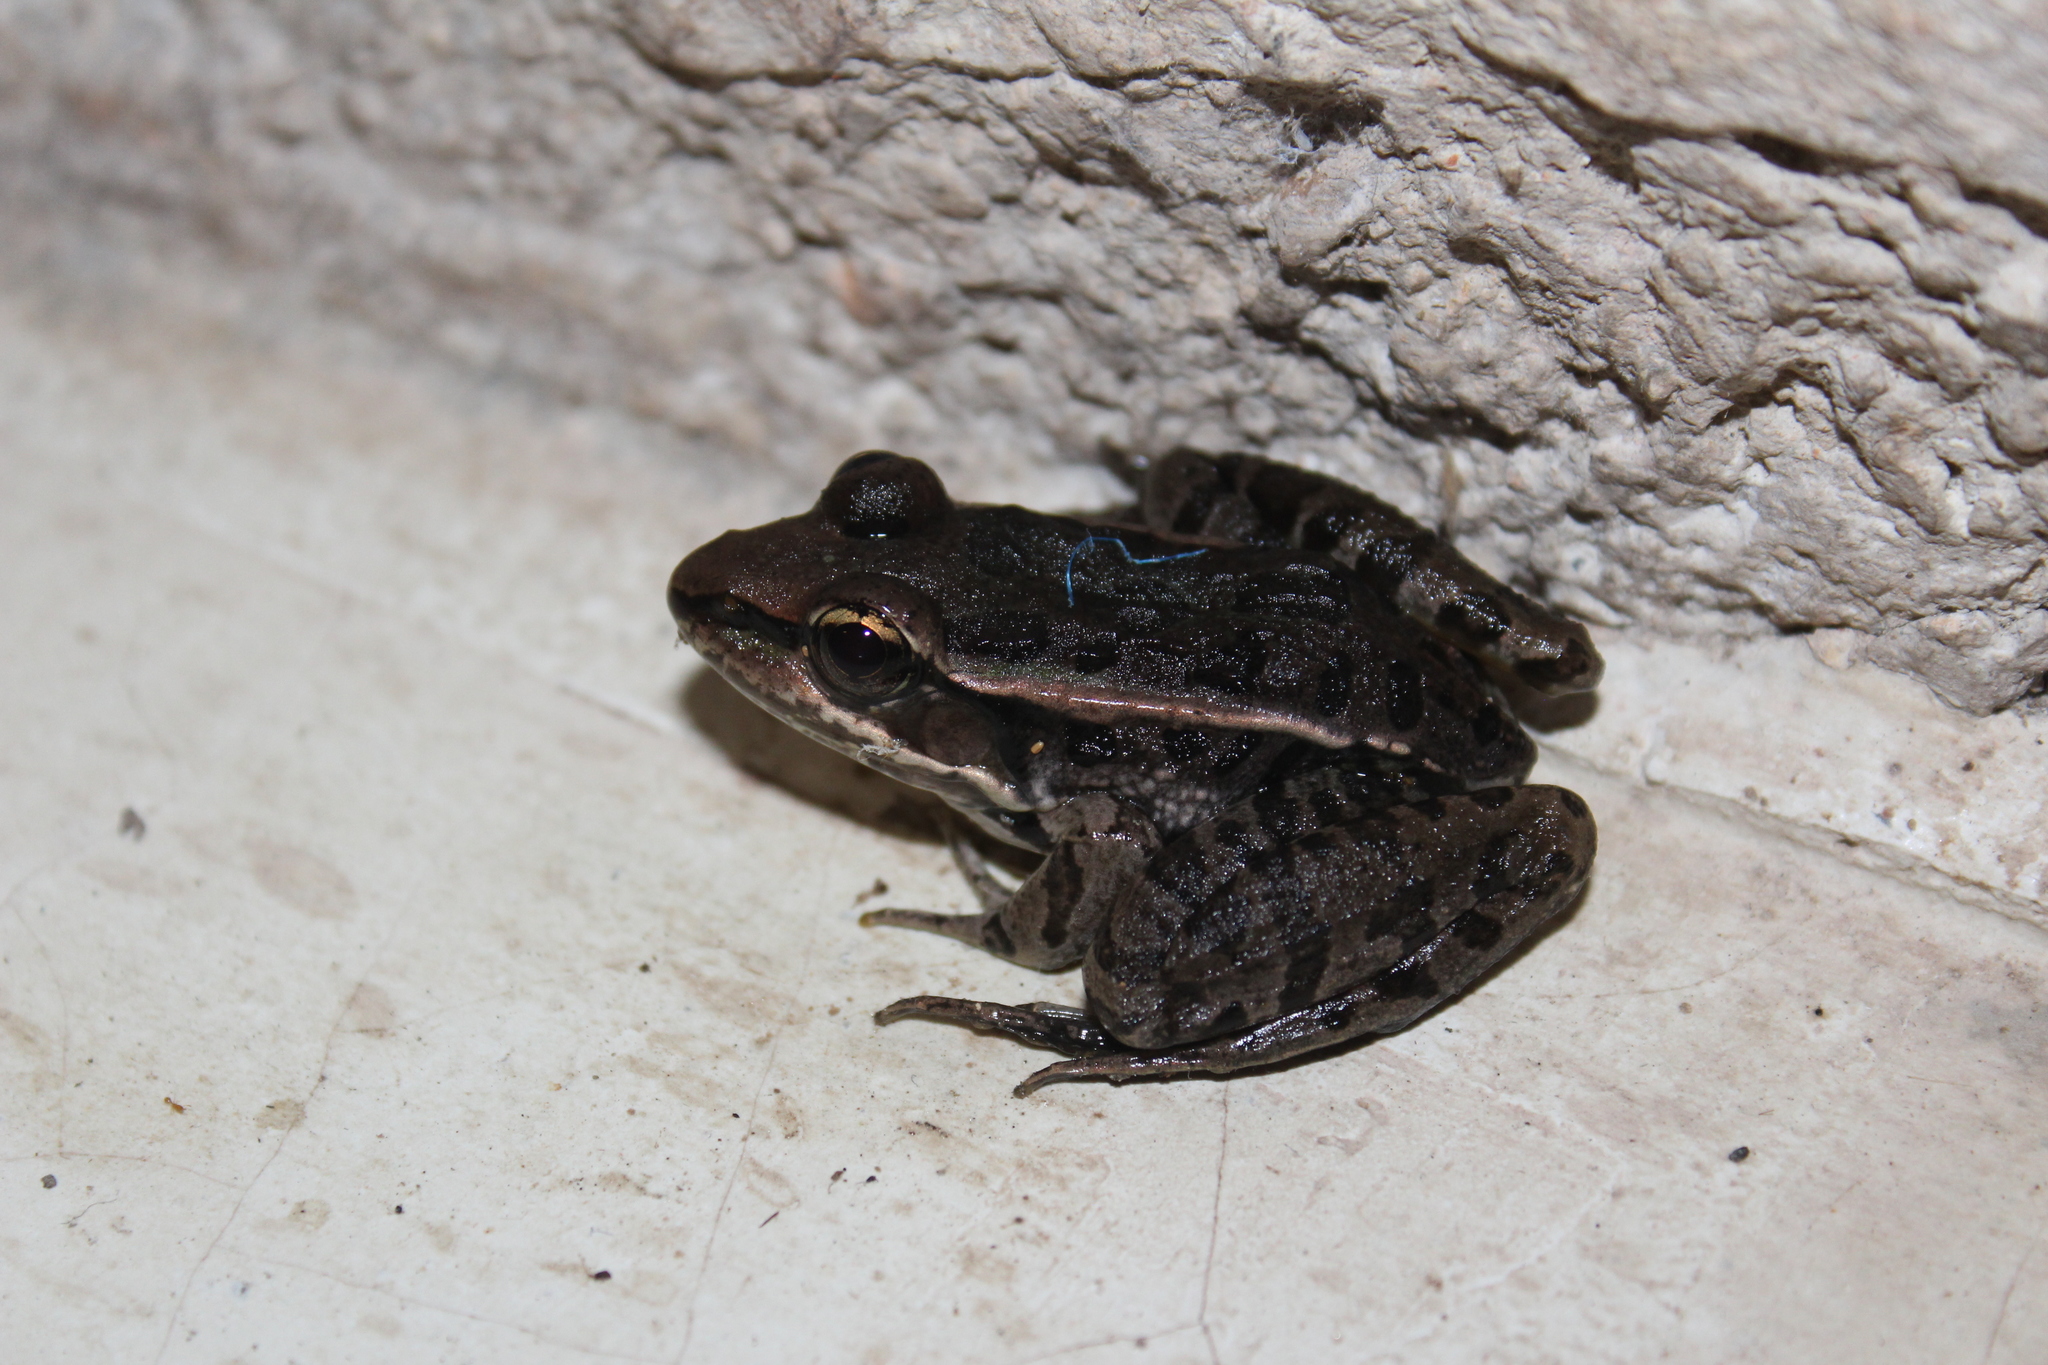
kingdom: Animalia
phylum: Chordata
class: Amphibia
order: Anura
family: Ranidae
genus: Lithobates
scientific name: Lithobates brownorum
